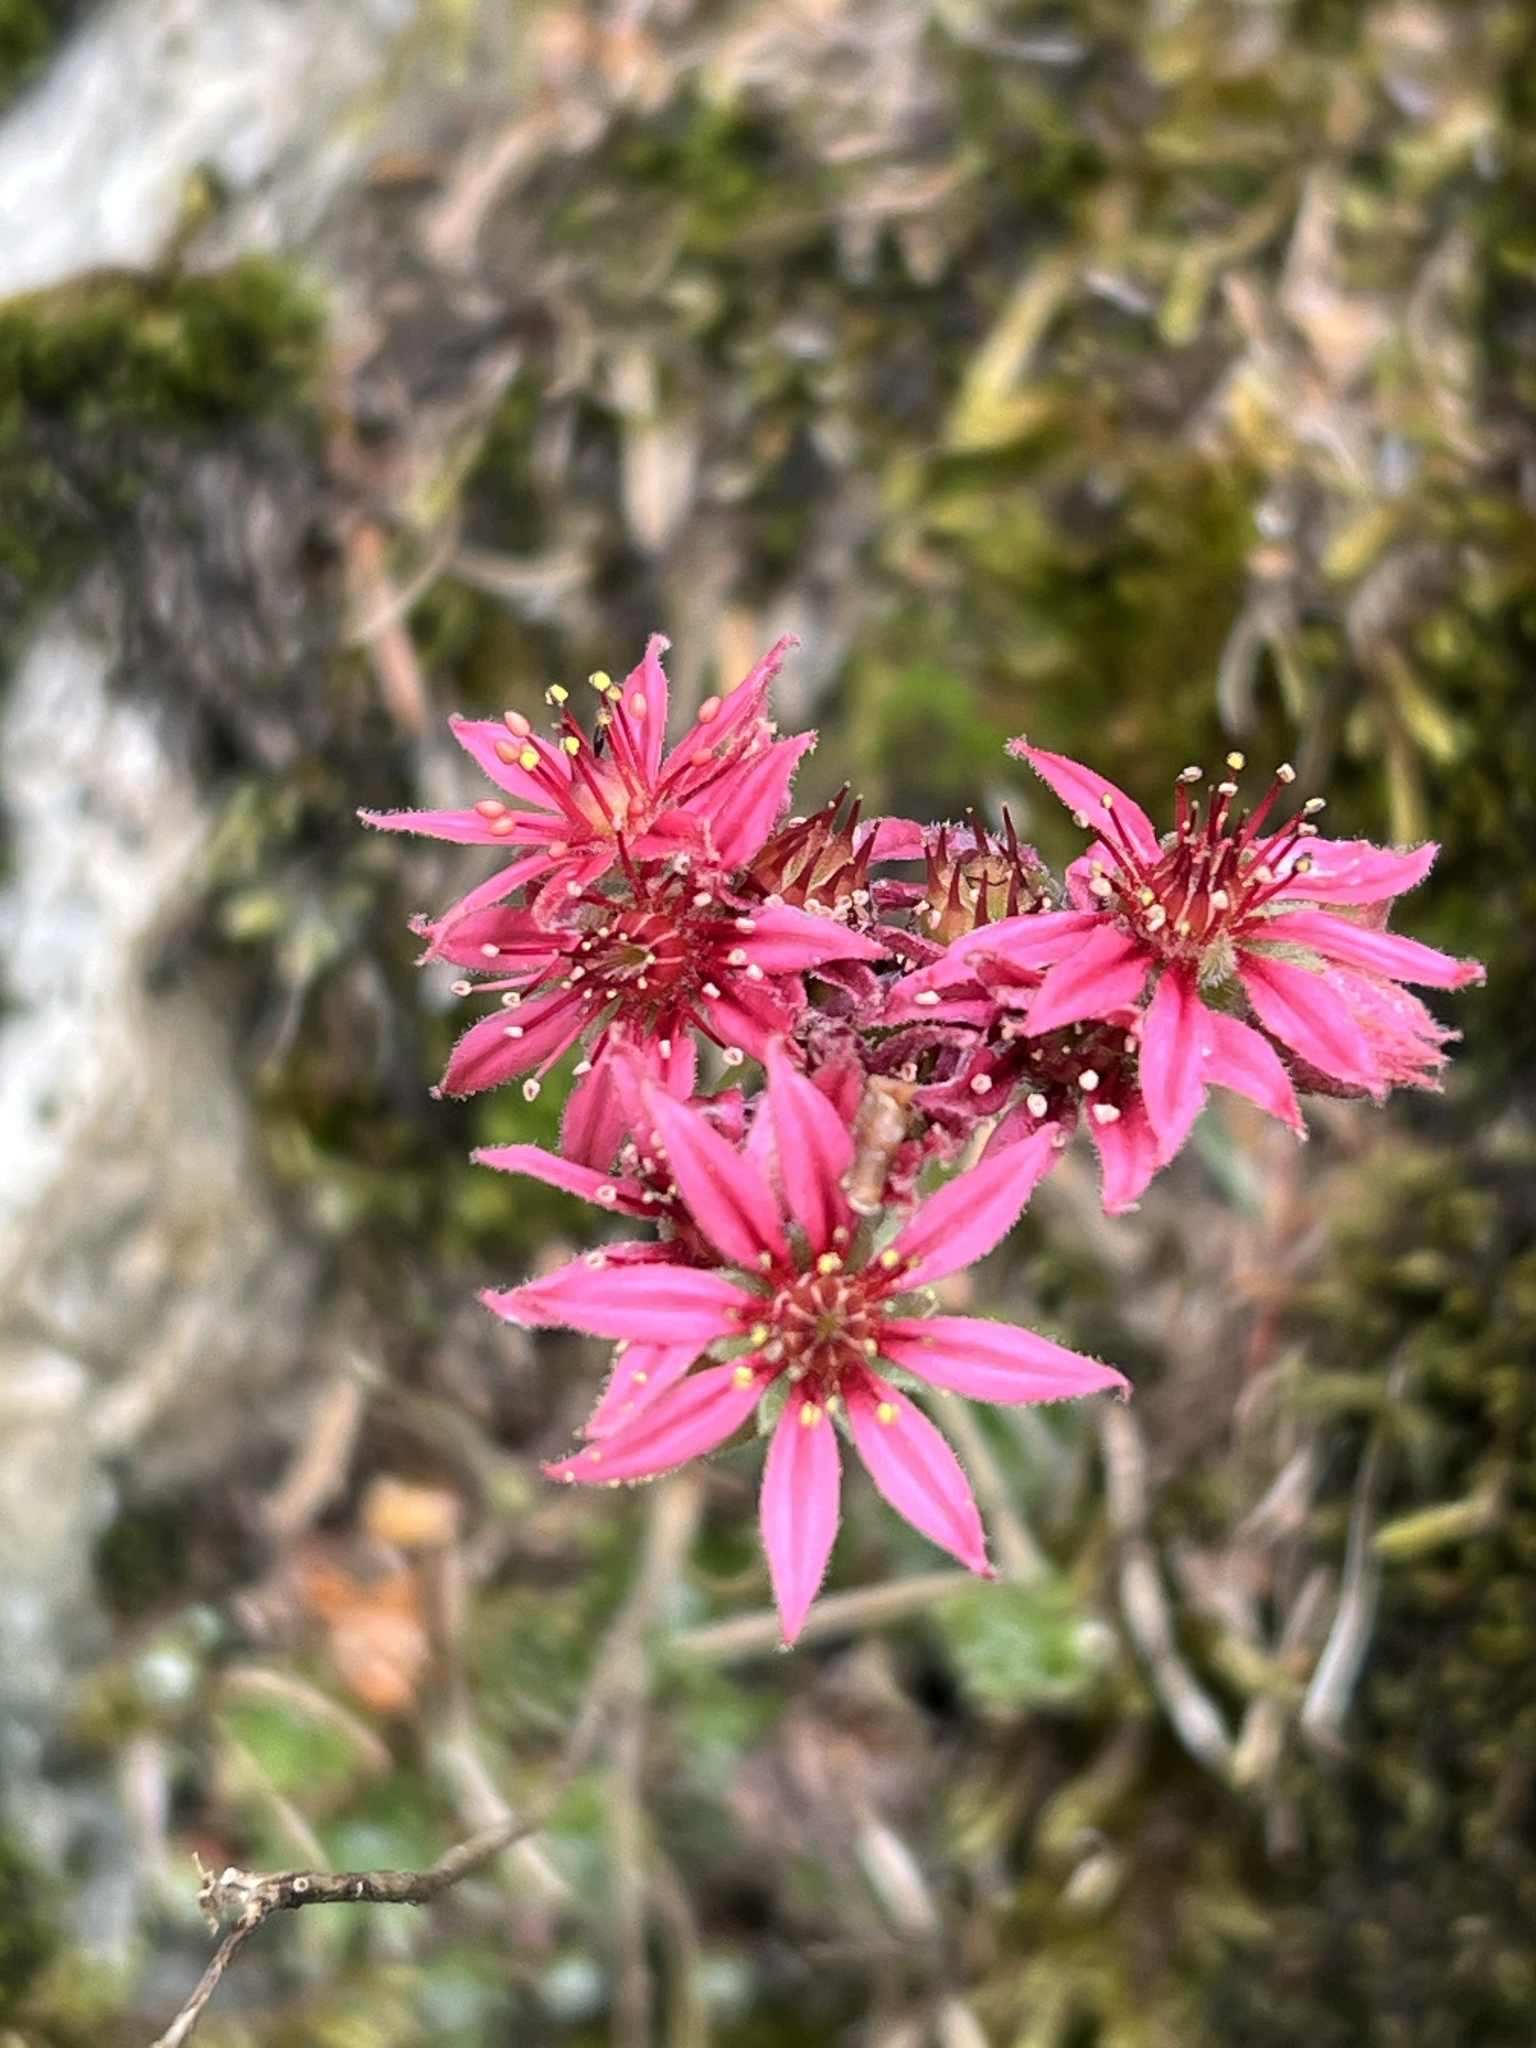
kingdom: Plantae
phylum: Tracheophyta
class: Magnoliopsida
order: Saxifragales
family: Crassulaceae
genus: Sempervivum
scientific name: Sempervivum arachnoideum
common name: Cobweb house-leek
